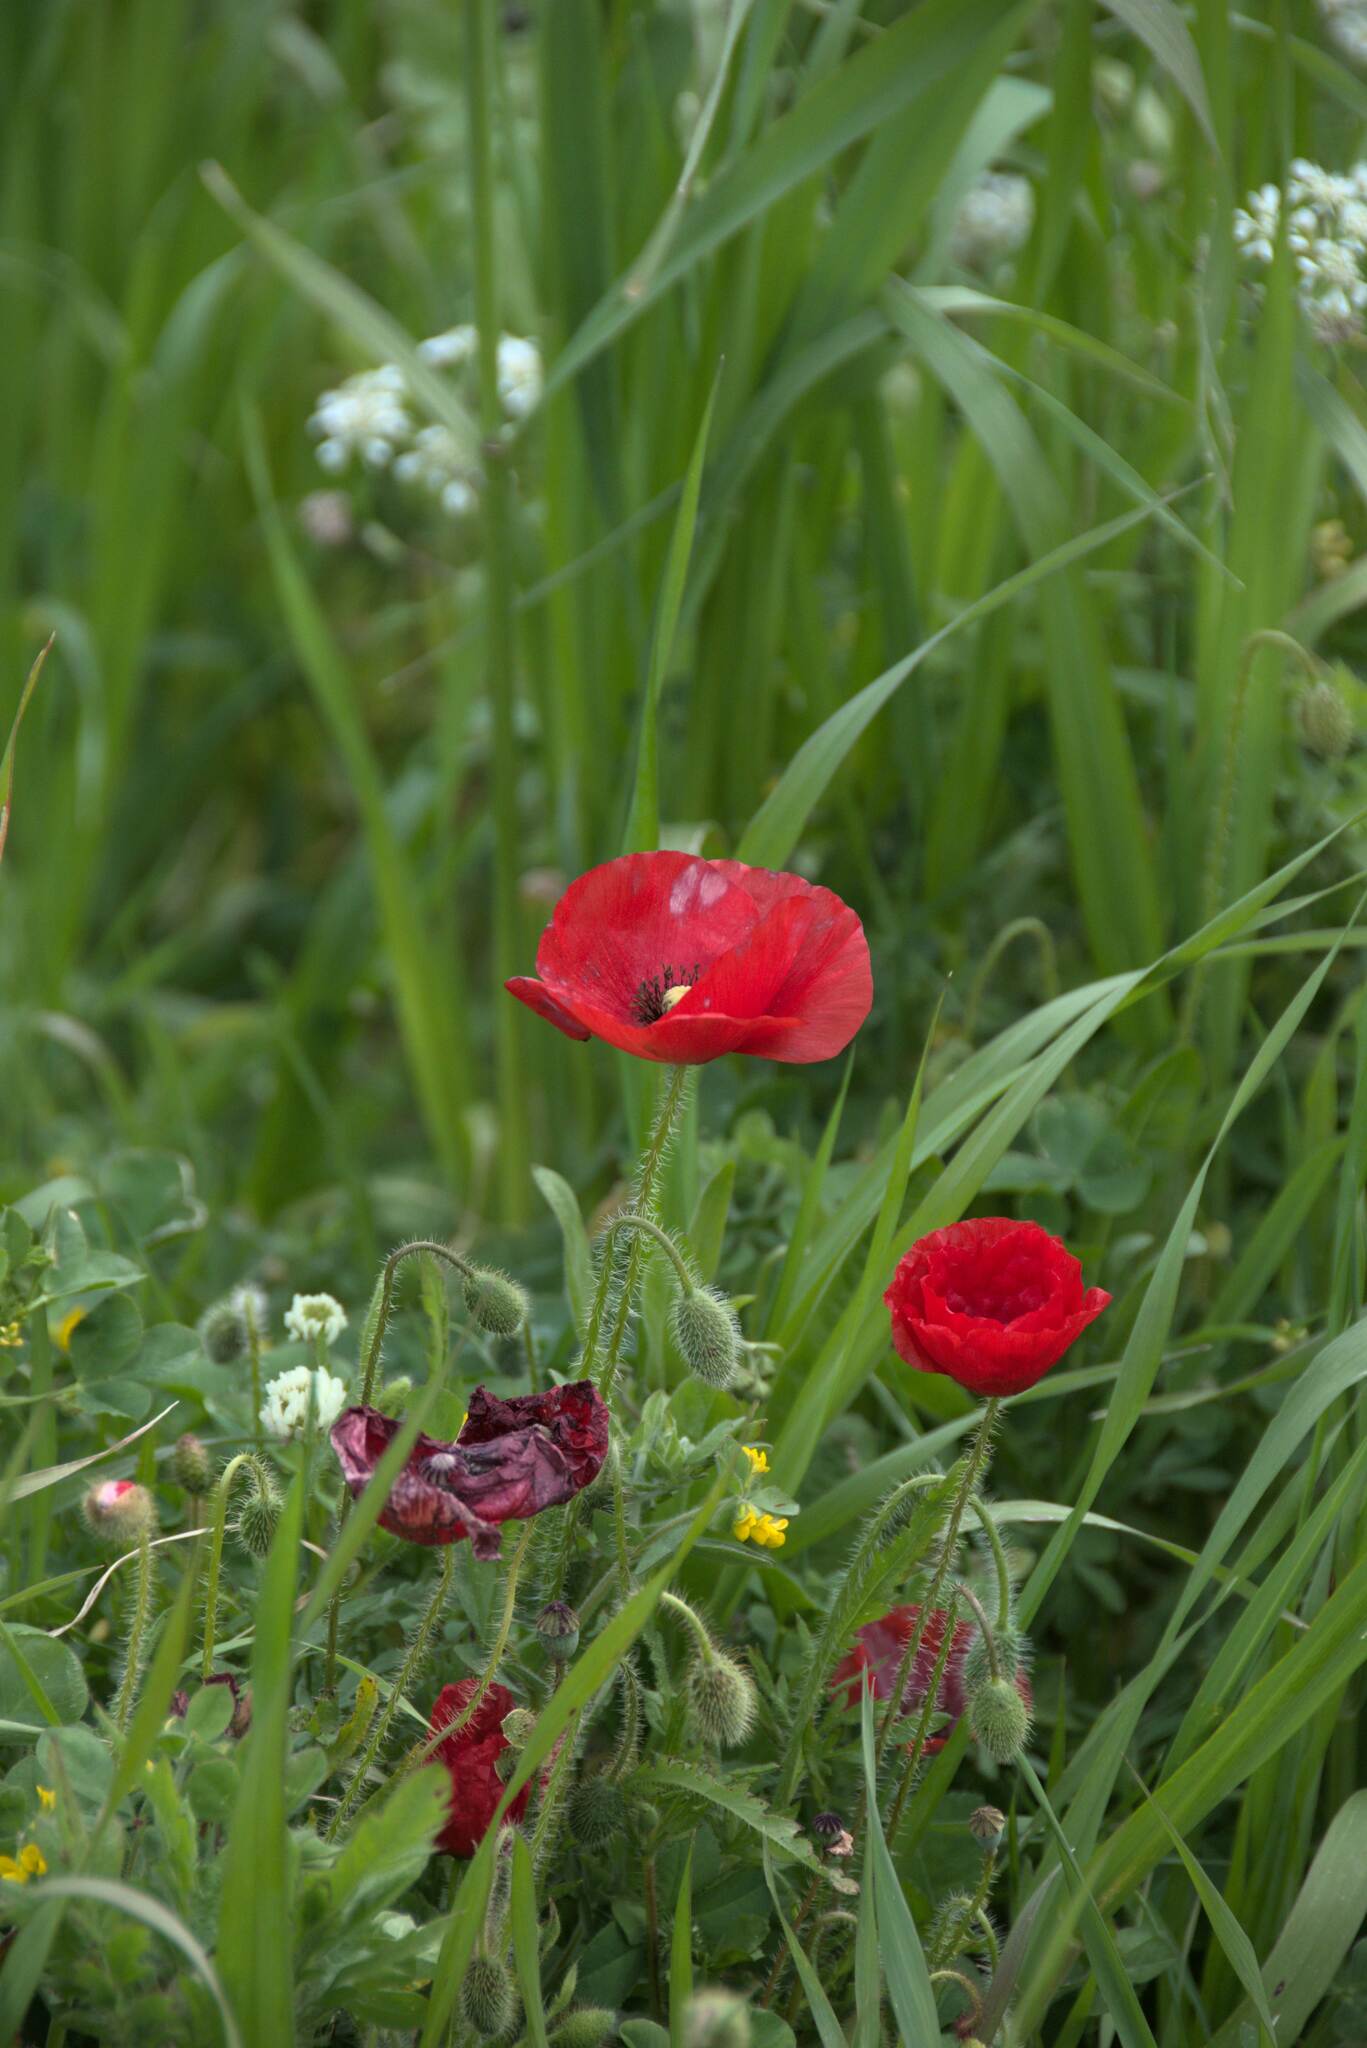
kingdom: Plantae
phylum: Tracheophyta
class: Magnoliopsida
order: Ranunculales
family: Papaveraceae
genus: Papaver
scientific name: Papaver rhoeas
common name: Corn poppy
